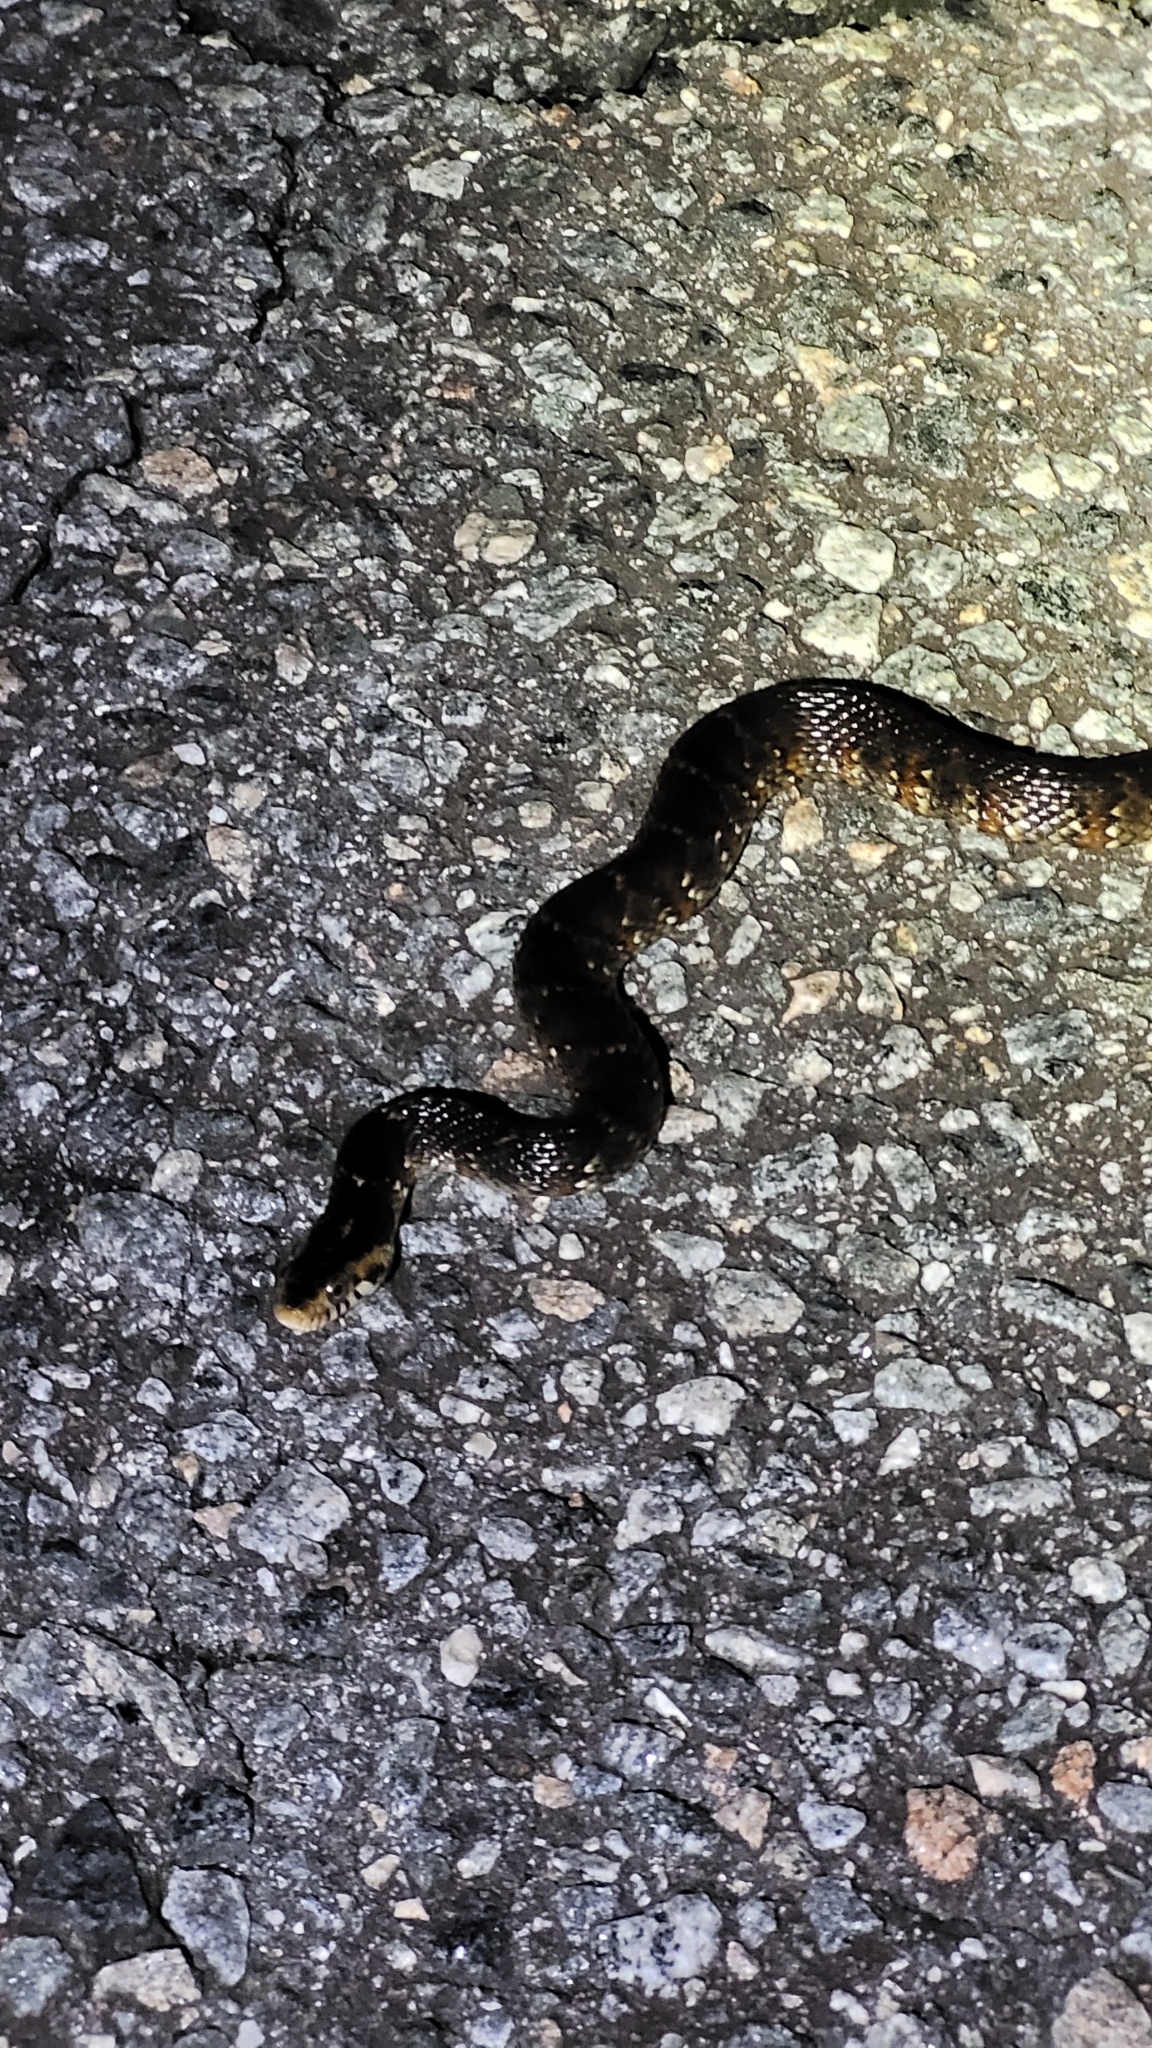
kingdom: Animalia
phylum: Chordata
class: Squamata
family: Colubridae
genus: Nerodia
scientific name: Nerodia fasciata
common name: Southern water snake
